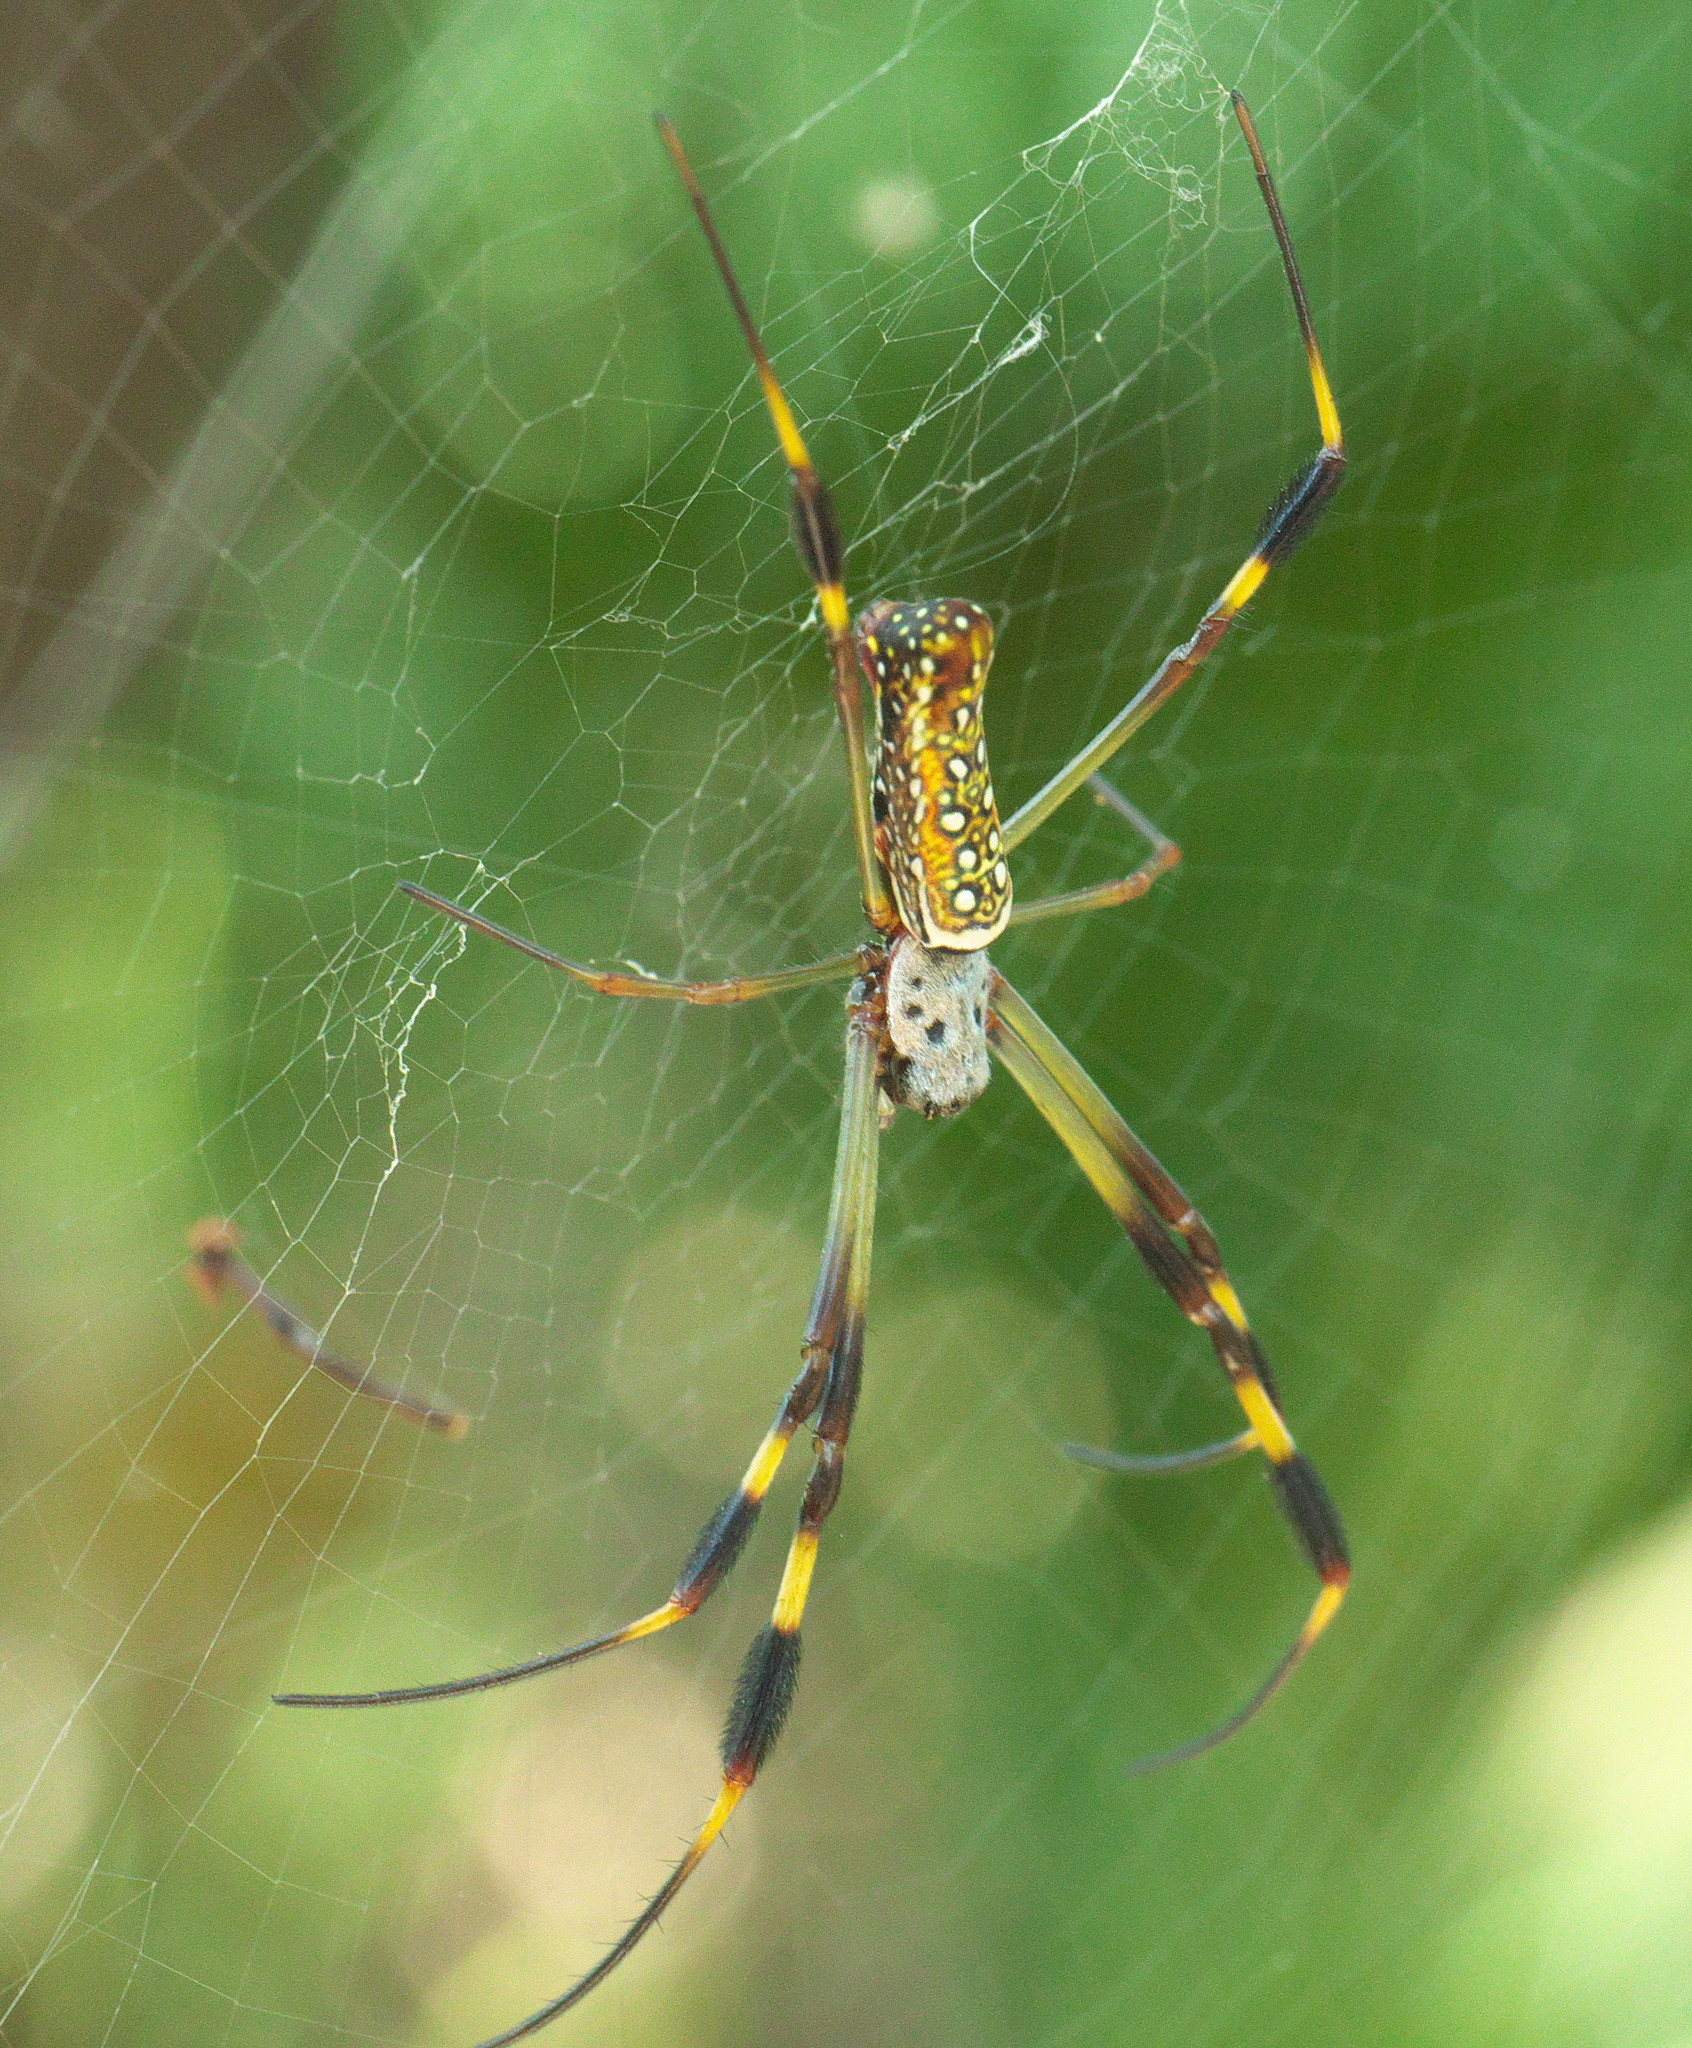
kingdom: Animalia
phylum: Arthropoda
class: Arachnida
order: Araneae
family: Araneidae
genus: Trichonephila
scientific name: Trichonephila clavipes
